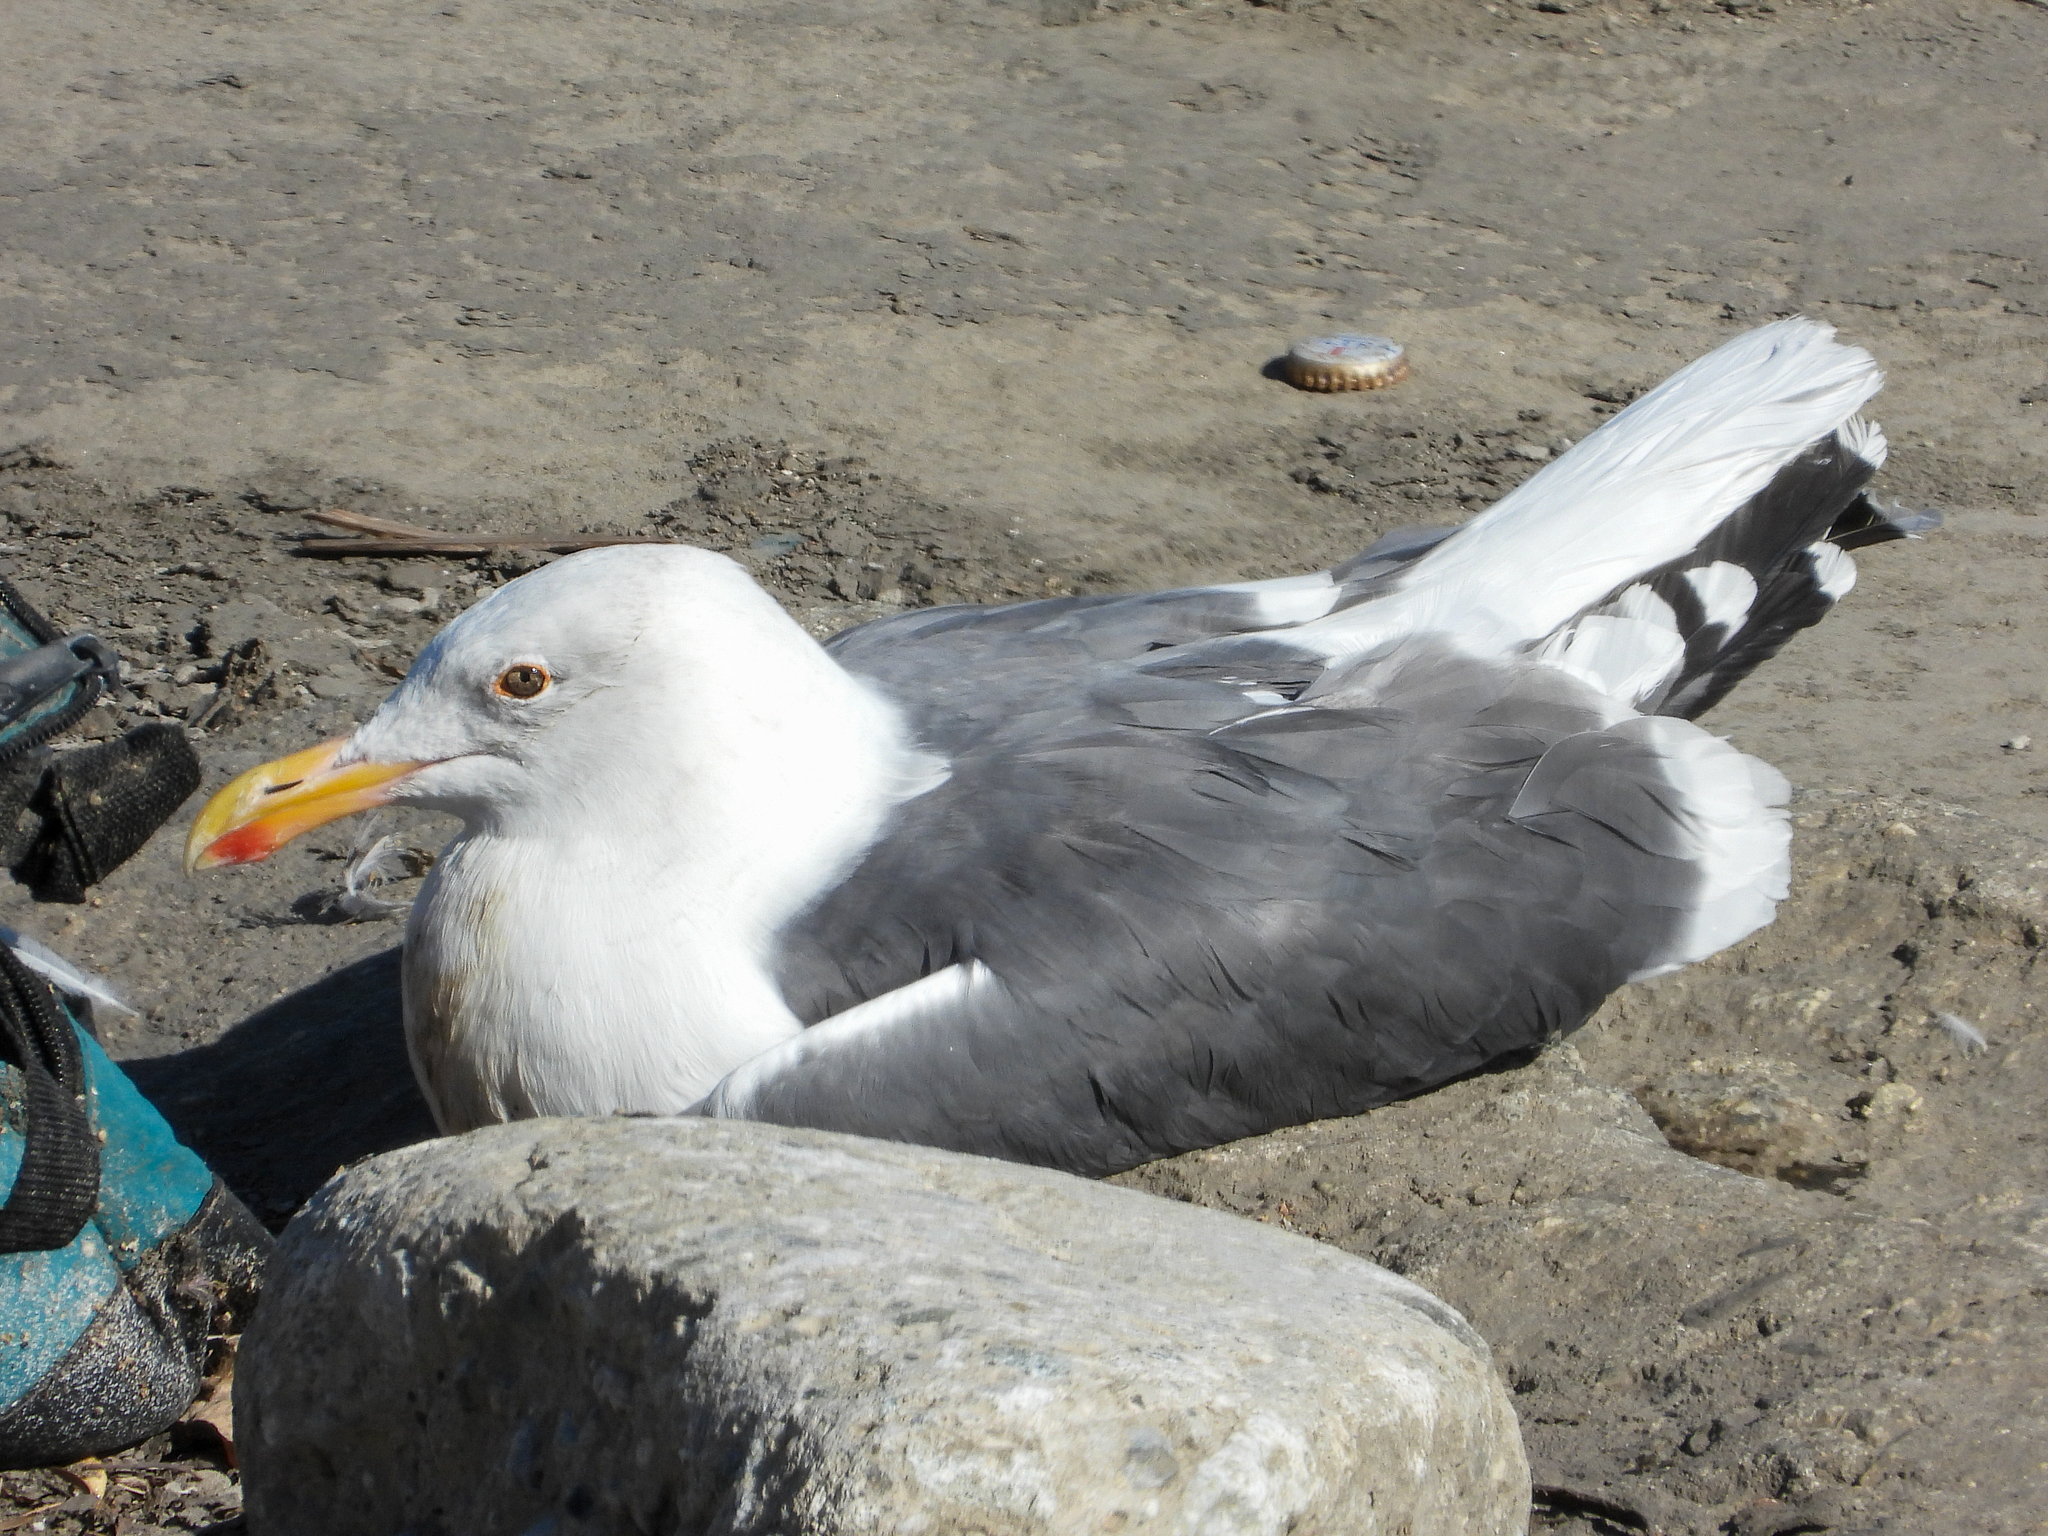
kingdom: Animalia
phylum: Chordata
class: Aves
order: Charadriiformes
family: Laridae
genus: Larus
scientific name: Larus occidentalis
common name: Western gull
